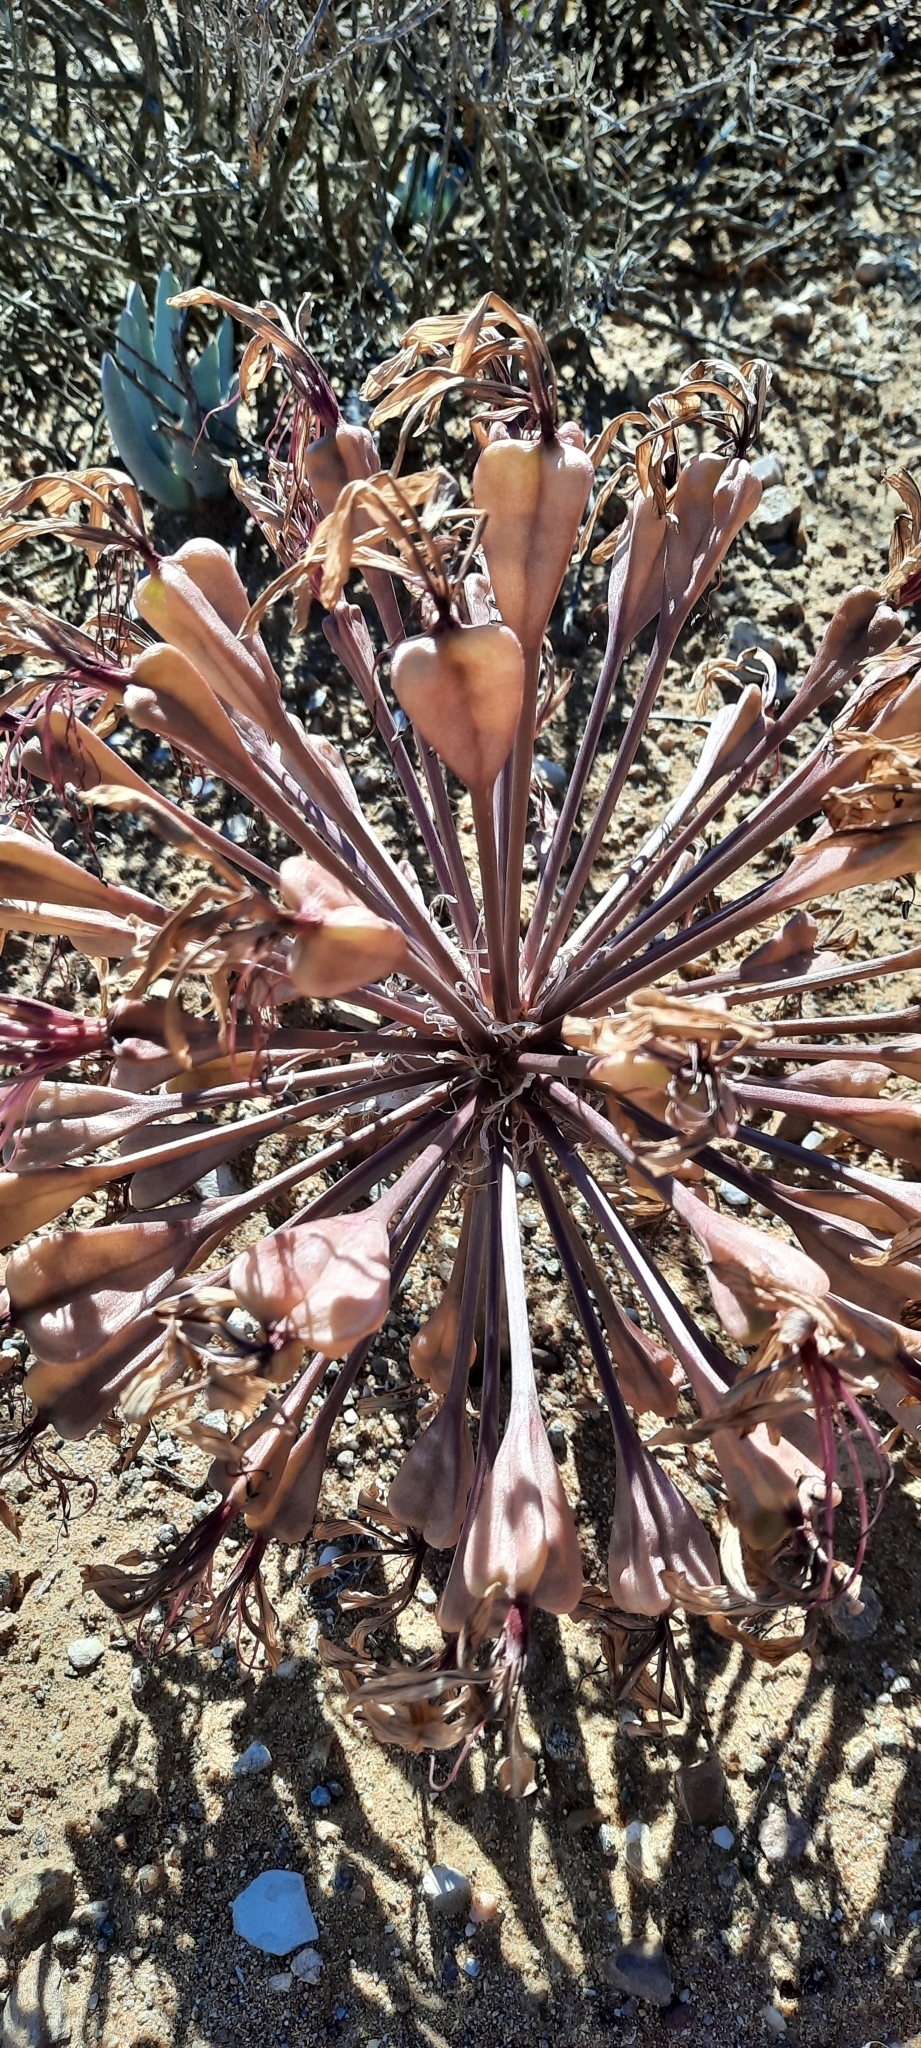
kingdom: Plantae
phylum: Tracheophyta
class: Liliopsida
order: Asparagales
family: Amaryllidaceae
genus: Brunsvigia
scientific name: Brunsvigia bosmaniae
